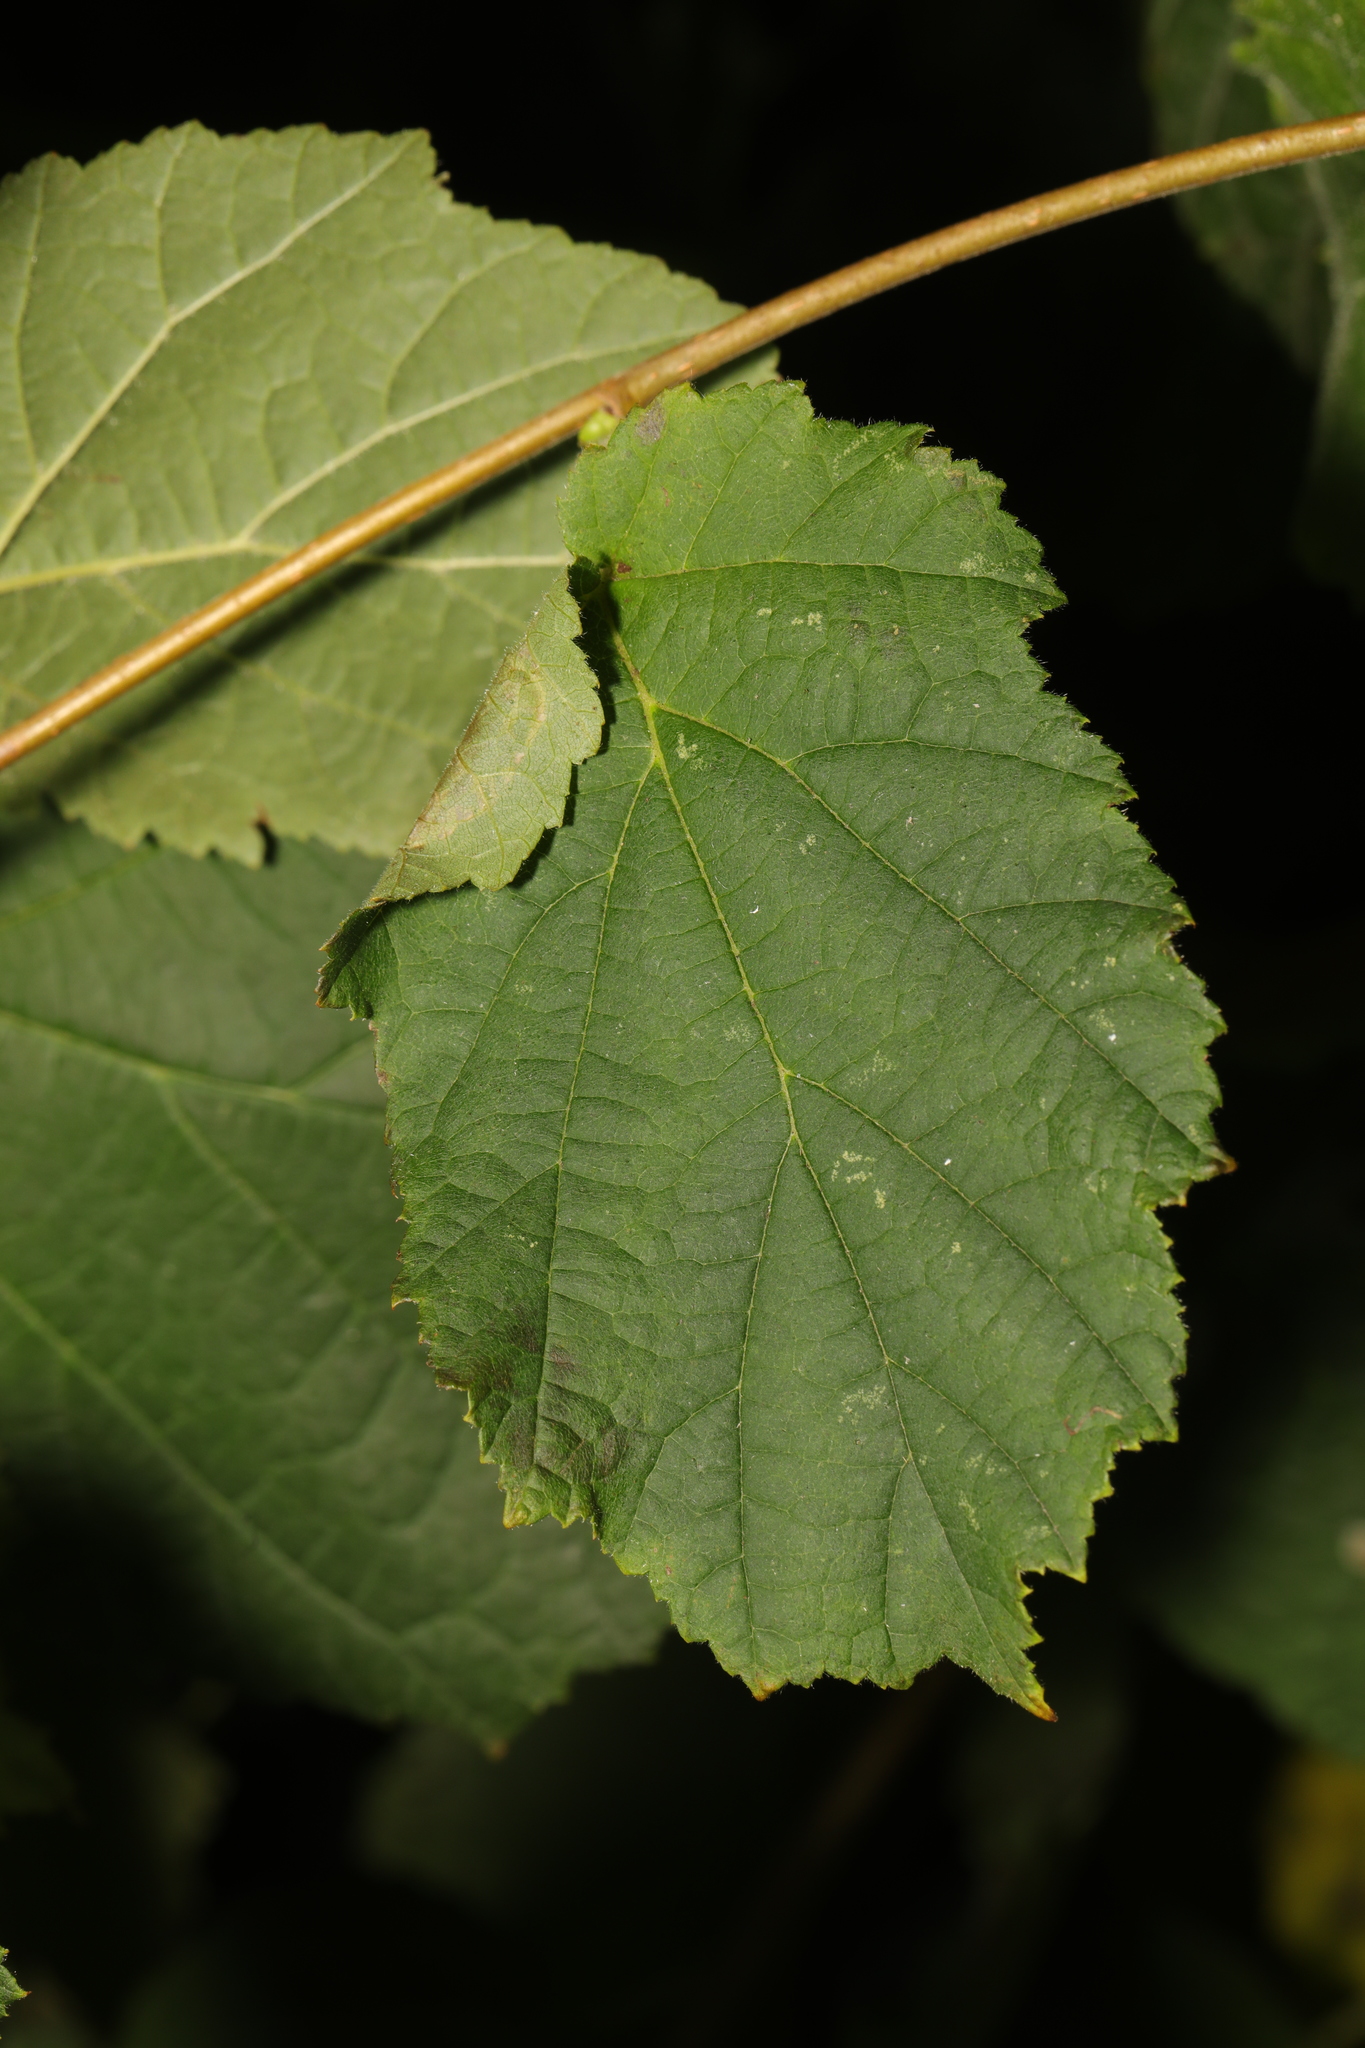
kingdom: Plantae
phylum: Tracheophyta
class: Magnoliopsida
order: Fagales
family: Betulaceae
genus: Corylus
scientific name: Corylus avellana
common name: European hazel
